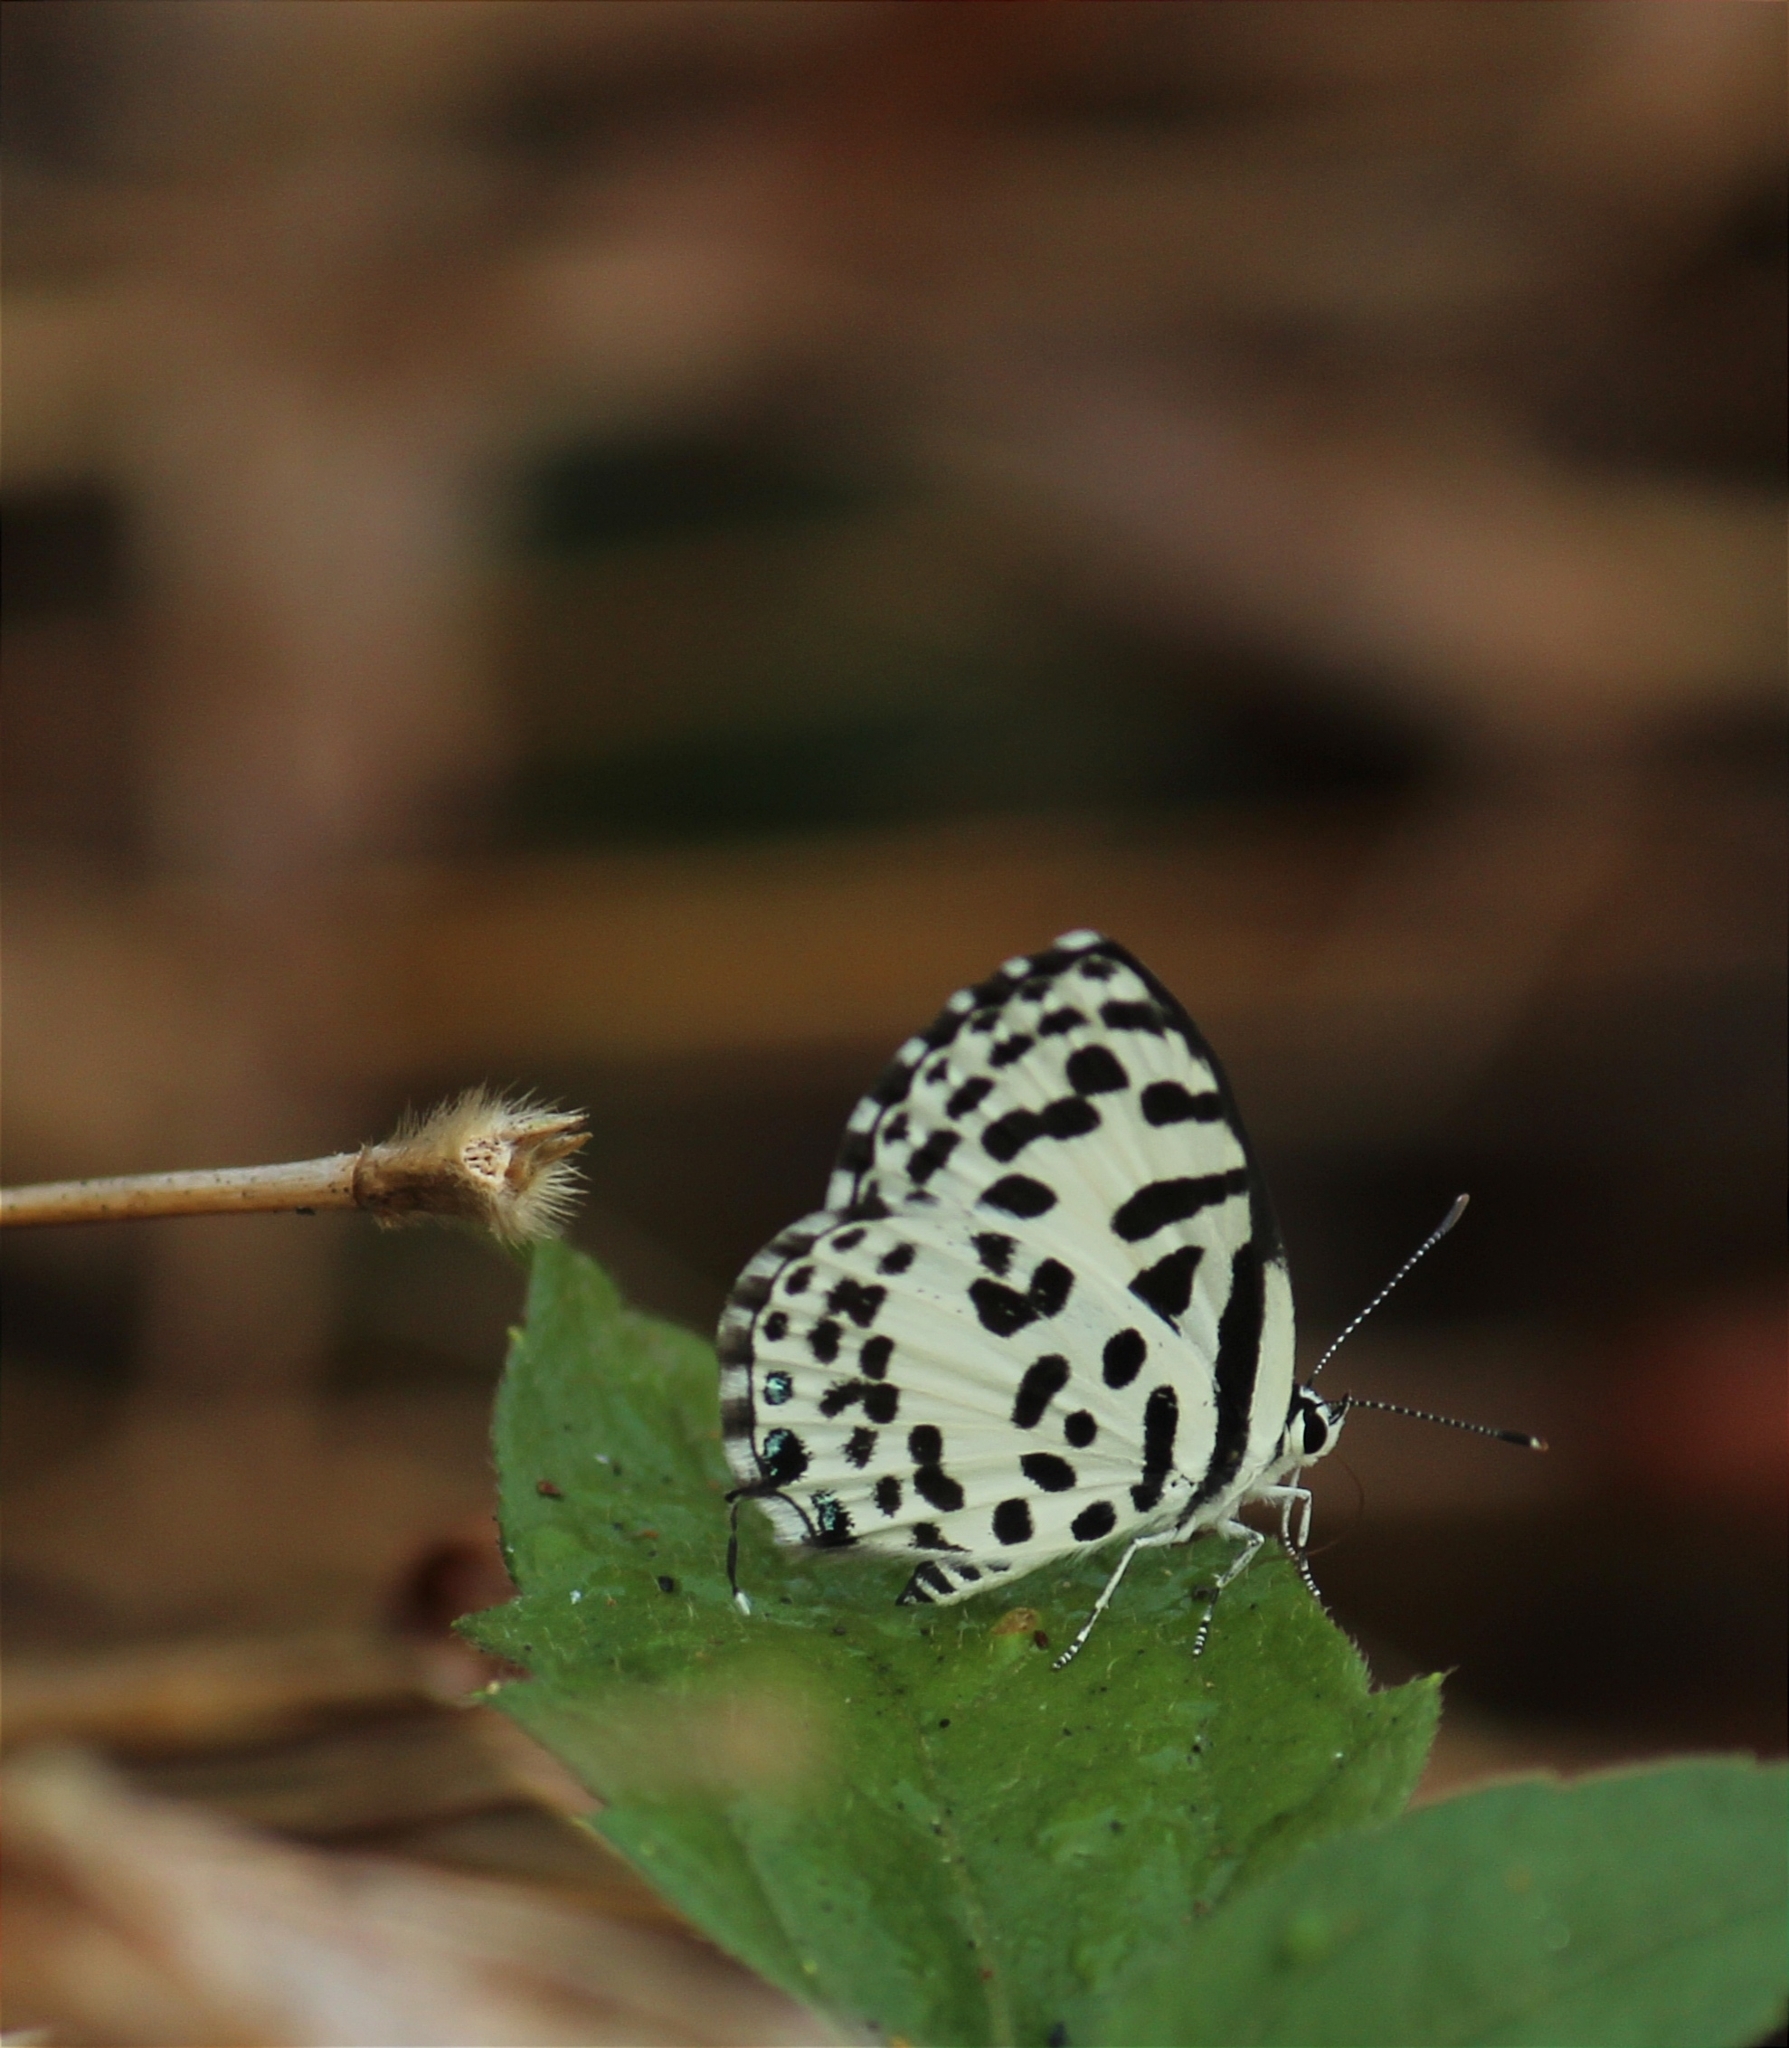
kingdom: Animalia
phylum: Arthropoda
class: Insecta
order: Lepidoptera
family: Lycaenidae
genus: Castalius
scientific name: Castalius rosimon
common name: Common pierrot
